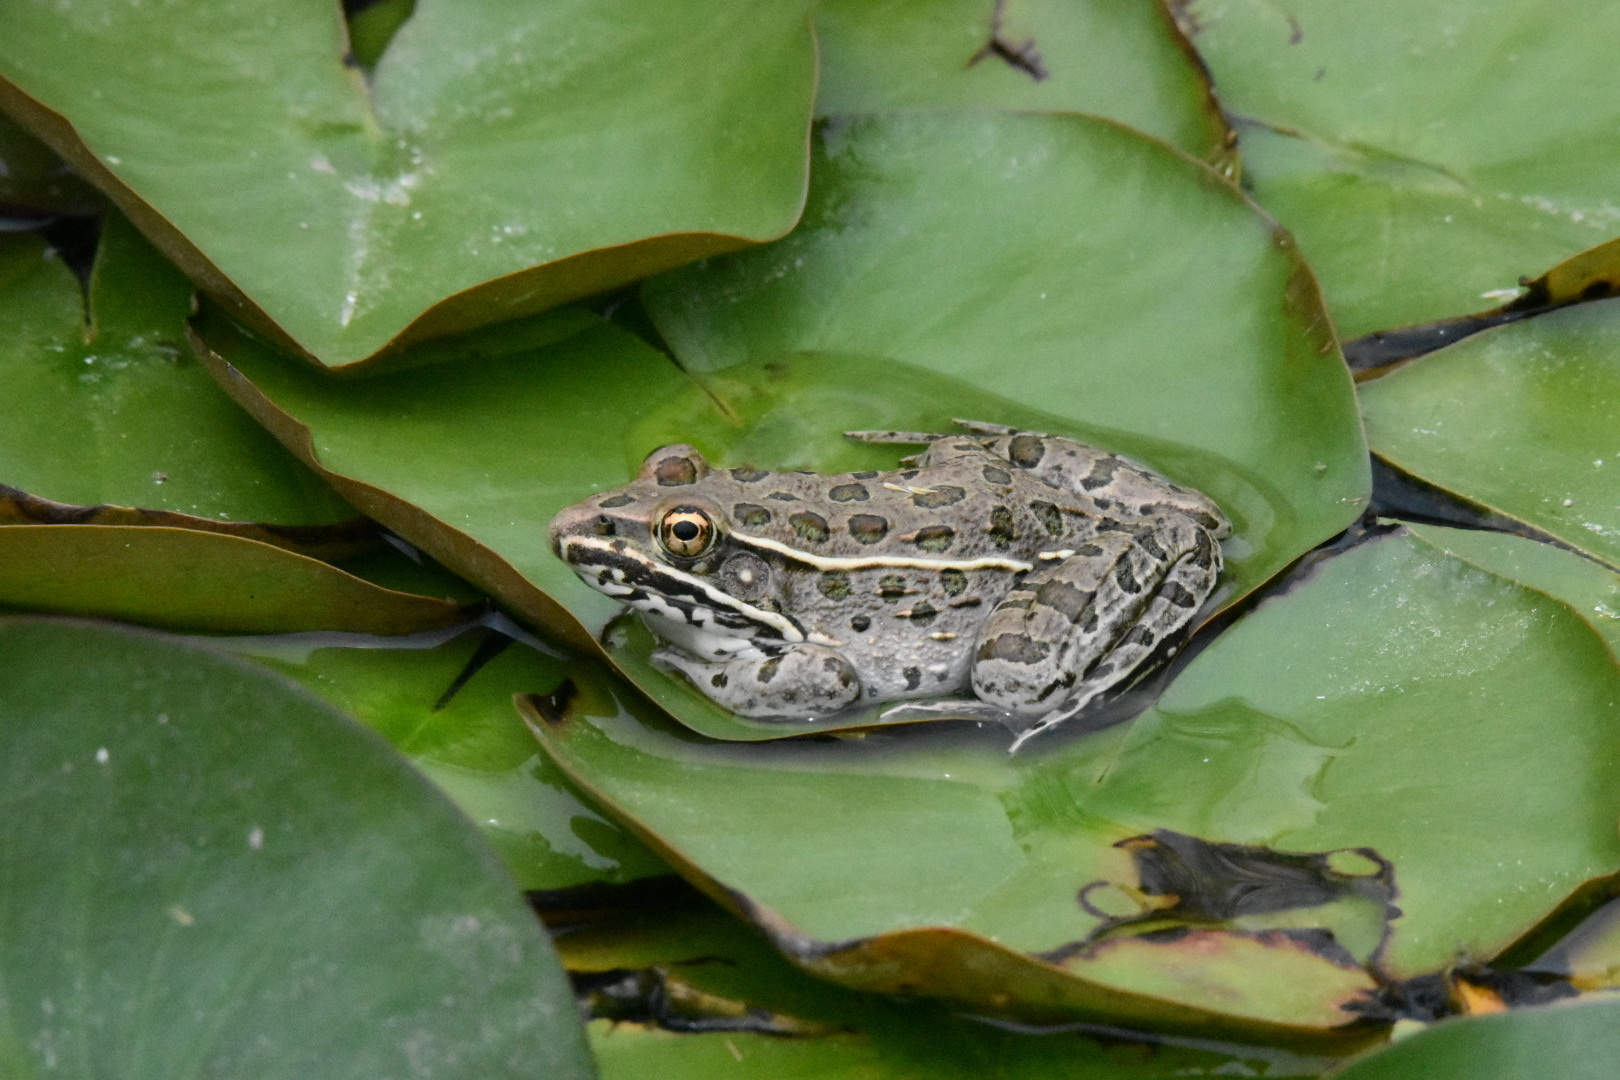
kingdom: Animalia
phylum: Chordata
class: Amphibia
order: Anura
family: Ranidae
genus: Lithobates
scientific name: Lithobates blairi
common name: Plains leopard frog
